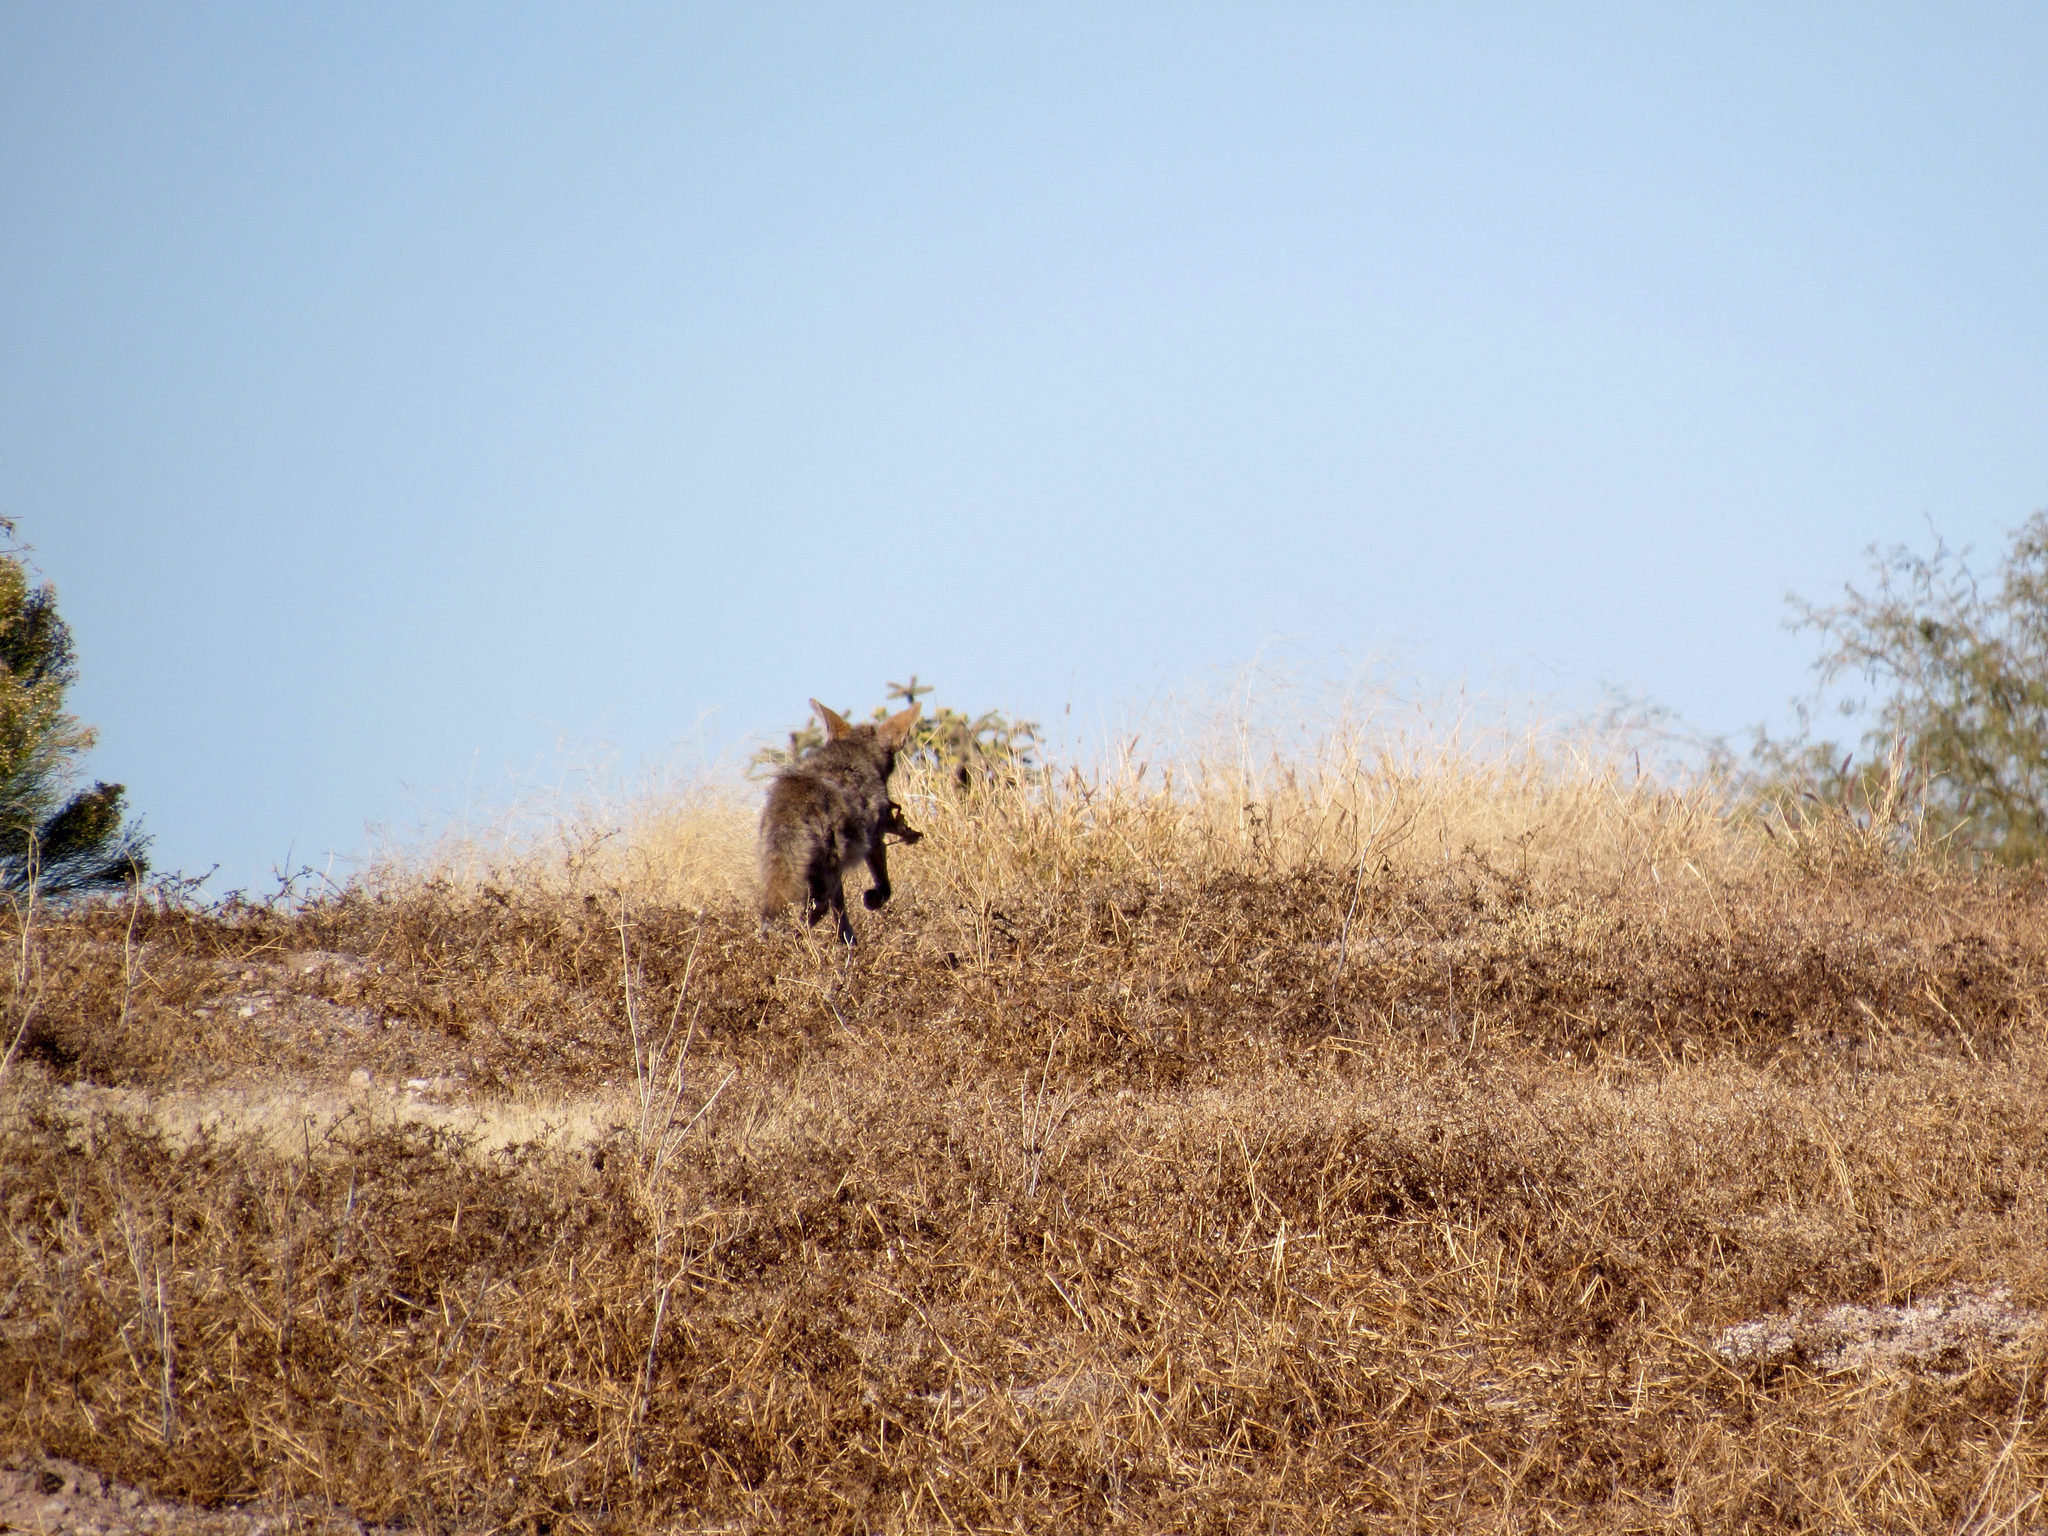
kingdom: Animalia
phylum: Chordata
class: Mammalia
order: Carnivora
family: Canidae
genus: Canis
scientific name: Canis latrans
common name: Coyote
